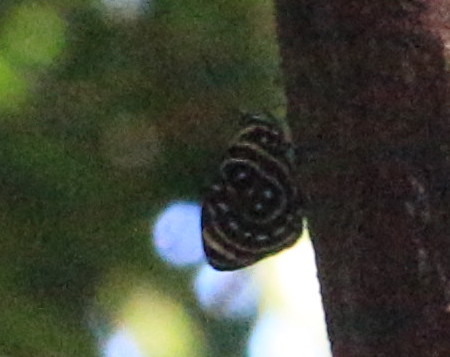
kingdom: Animalia
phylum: Arthropoda
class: Insecta
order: Lepidoptera
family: Nymphalidae
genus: Catagramma
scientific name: Catagramma astarte
